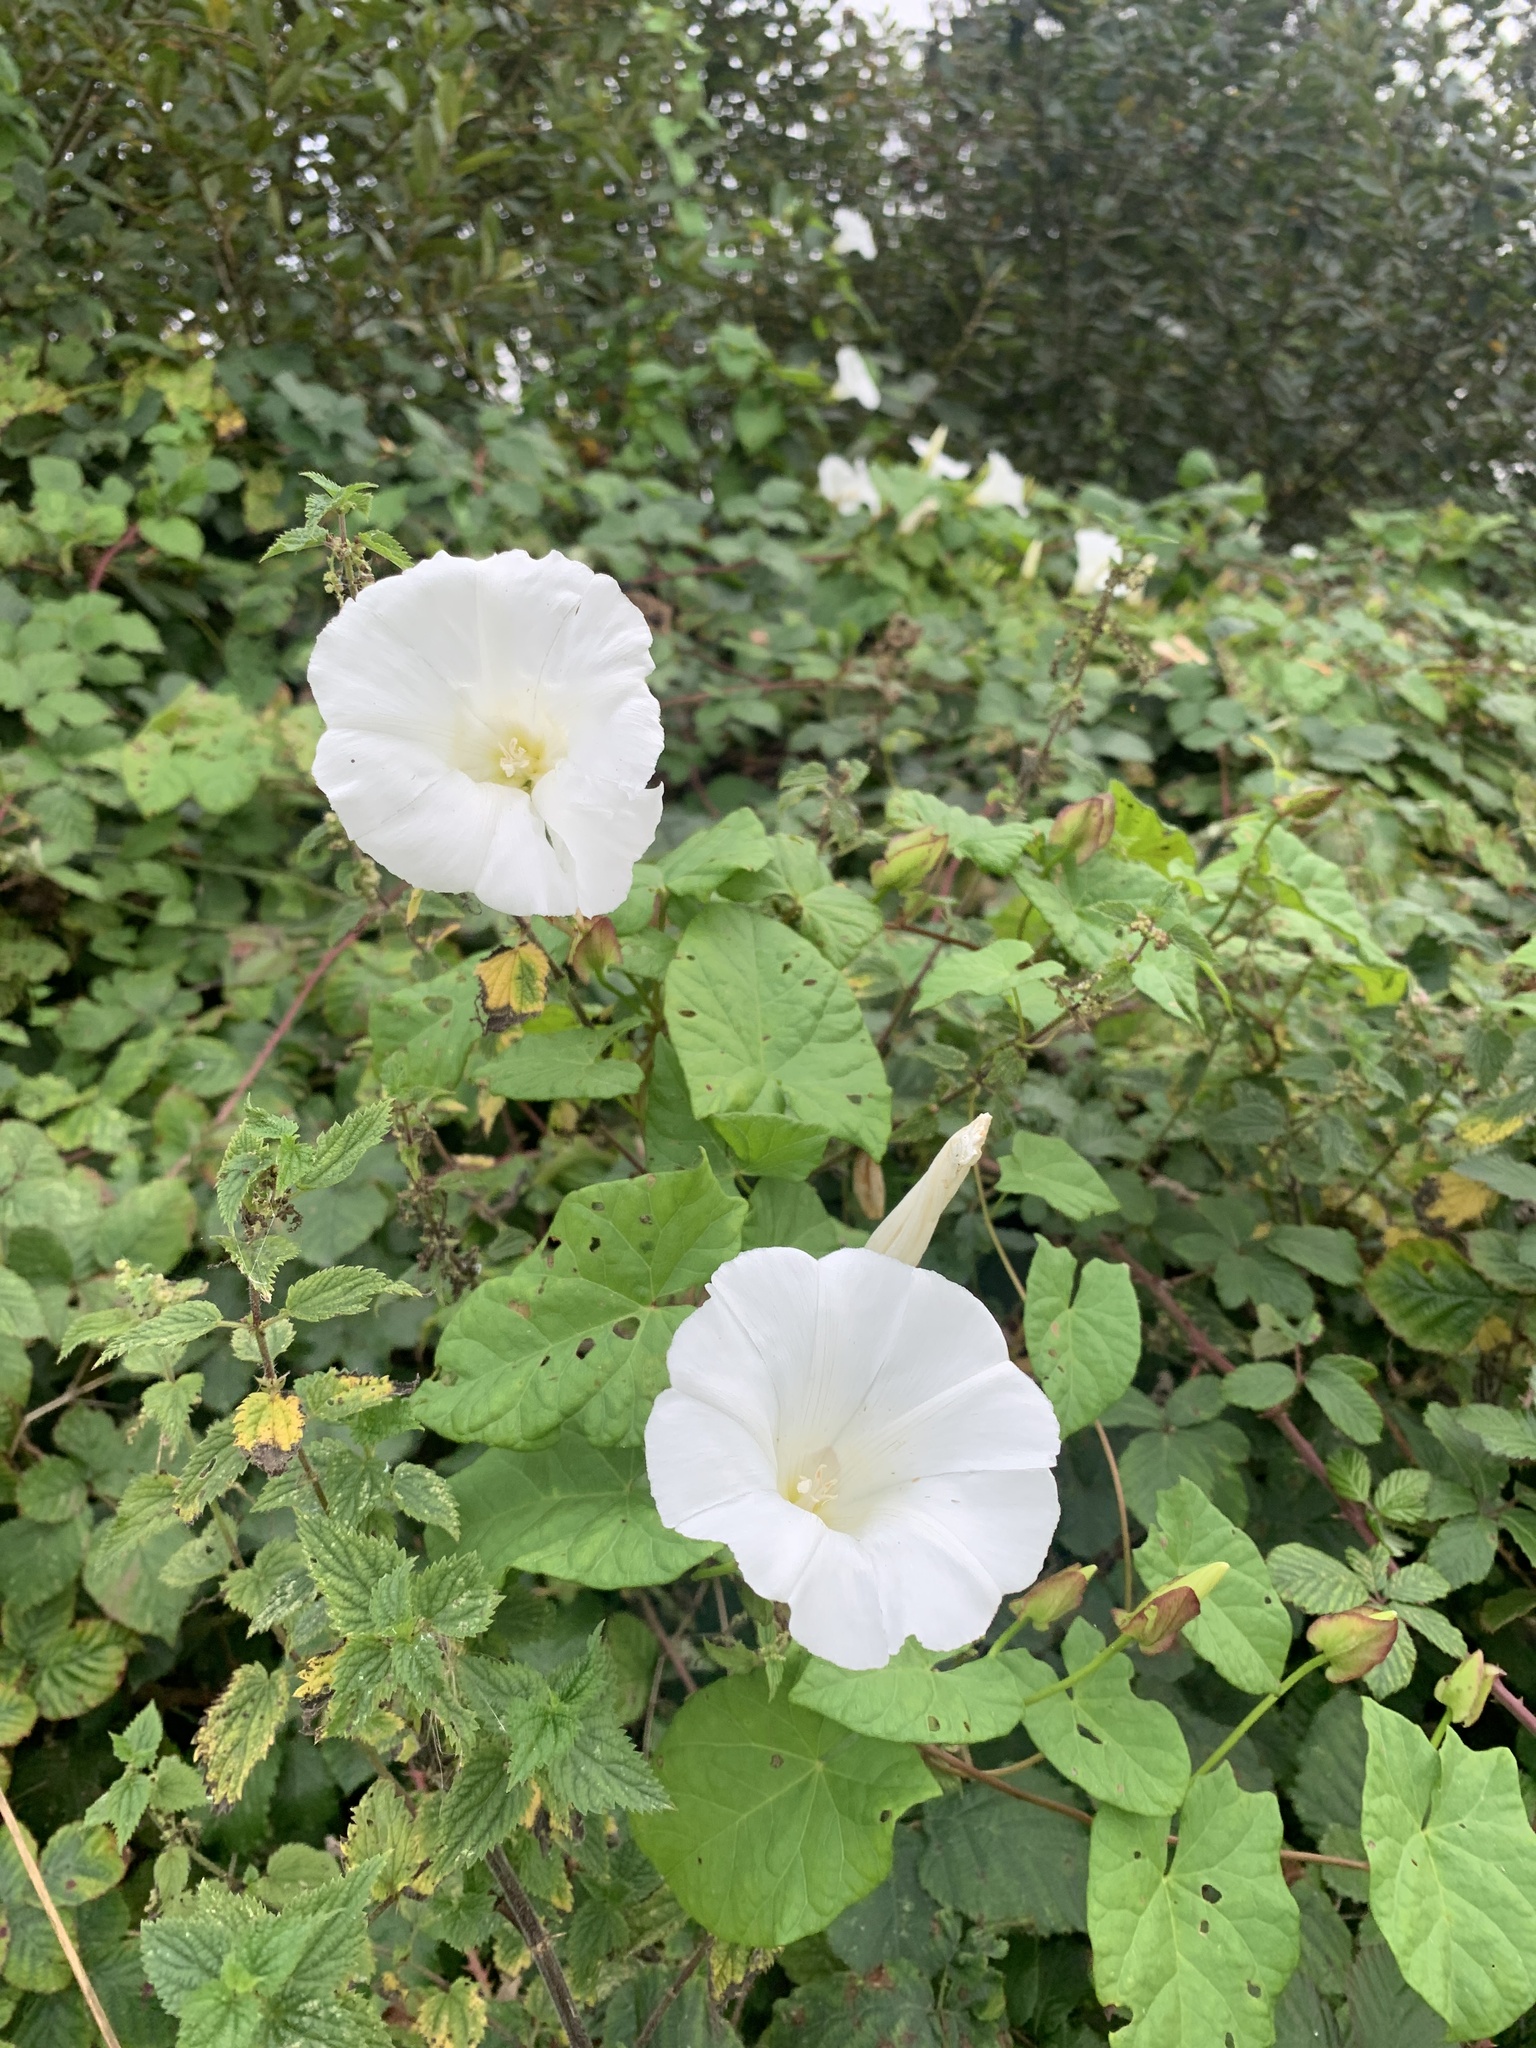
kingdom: Plantae
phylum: Tracheophyta
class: Magnoliopsida
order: Solanales
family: Convolvulaceae
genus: Calystegia
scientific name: Calystegia silvatica
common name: Large bindweed
